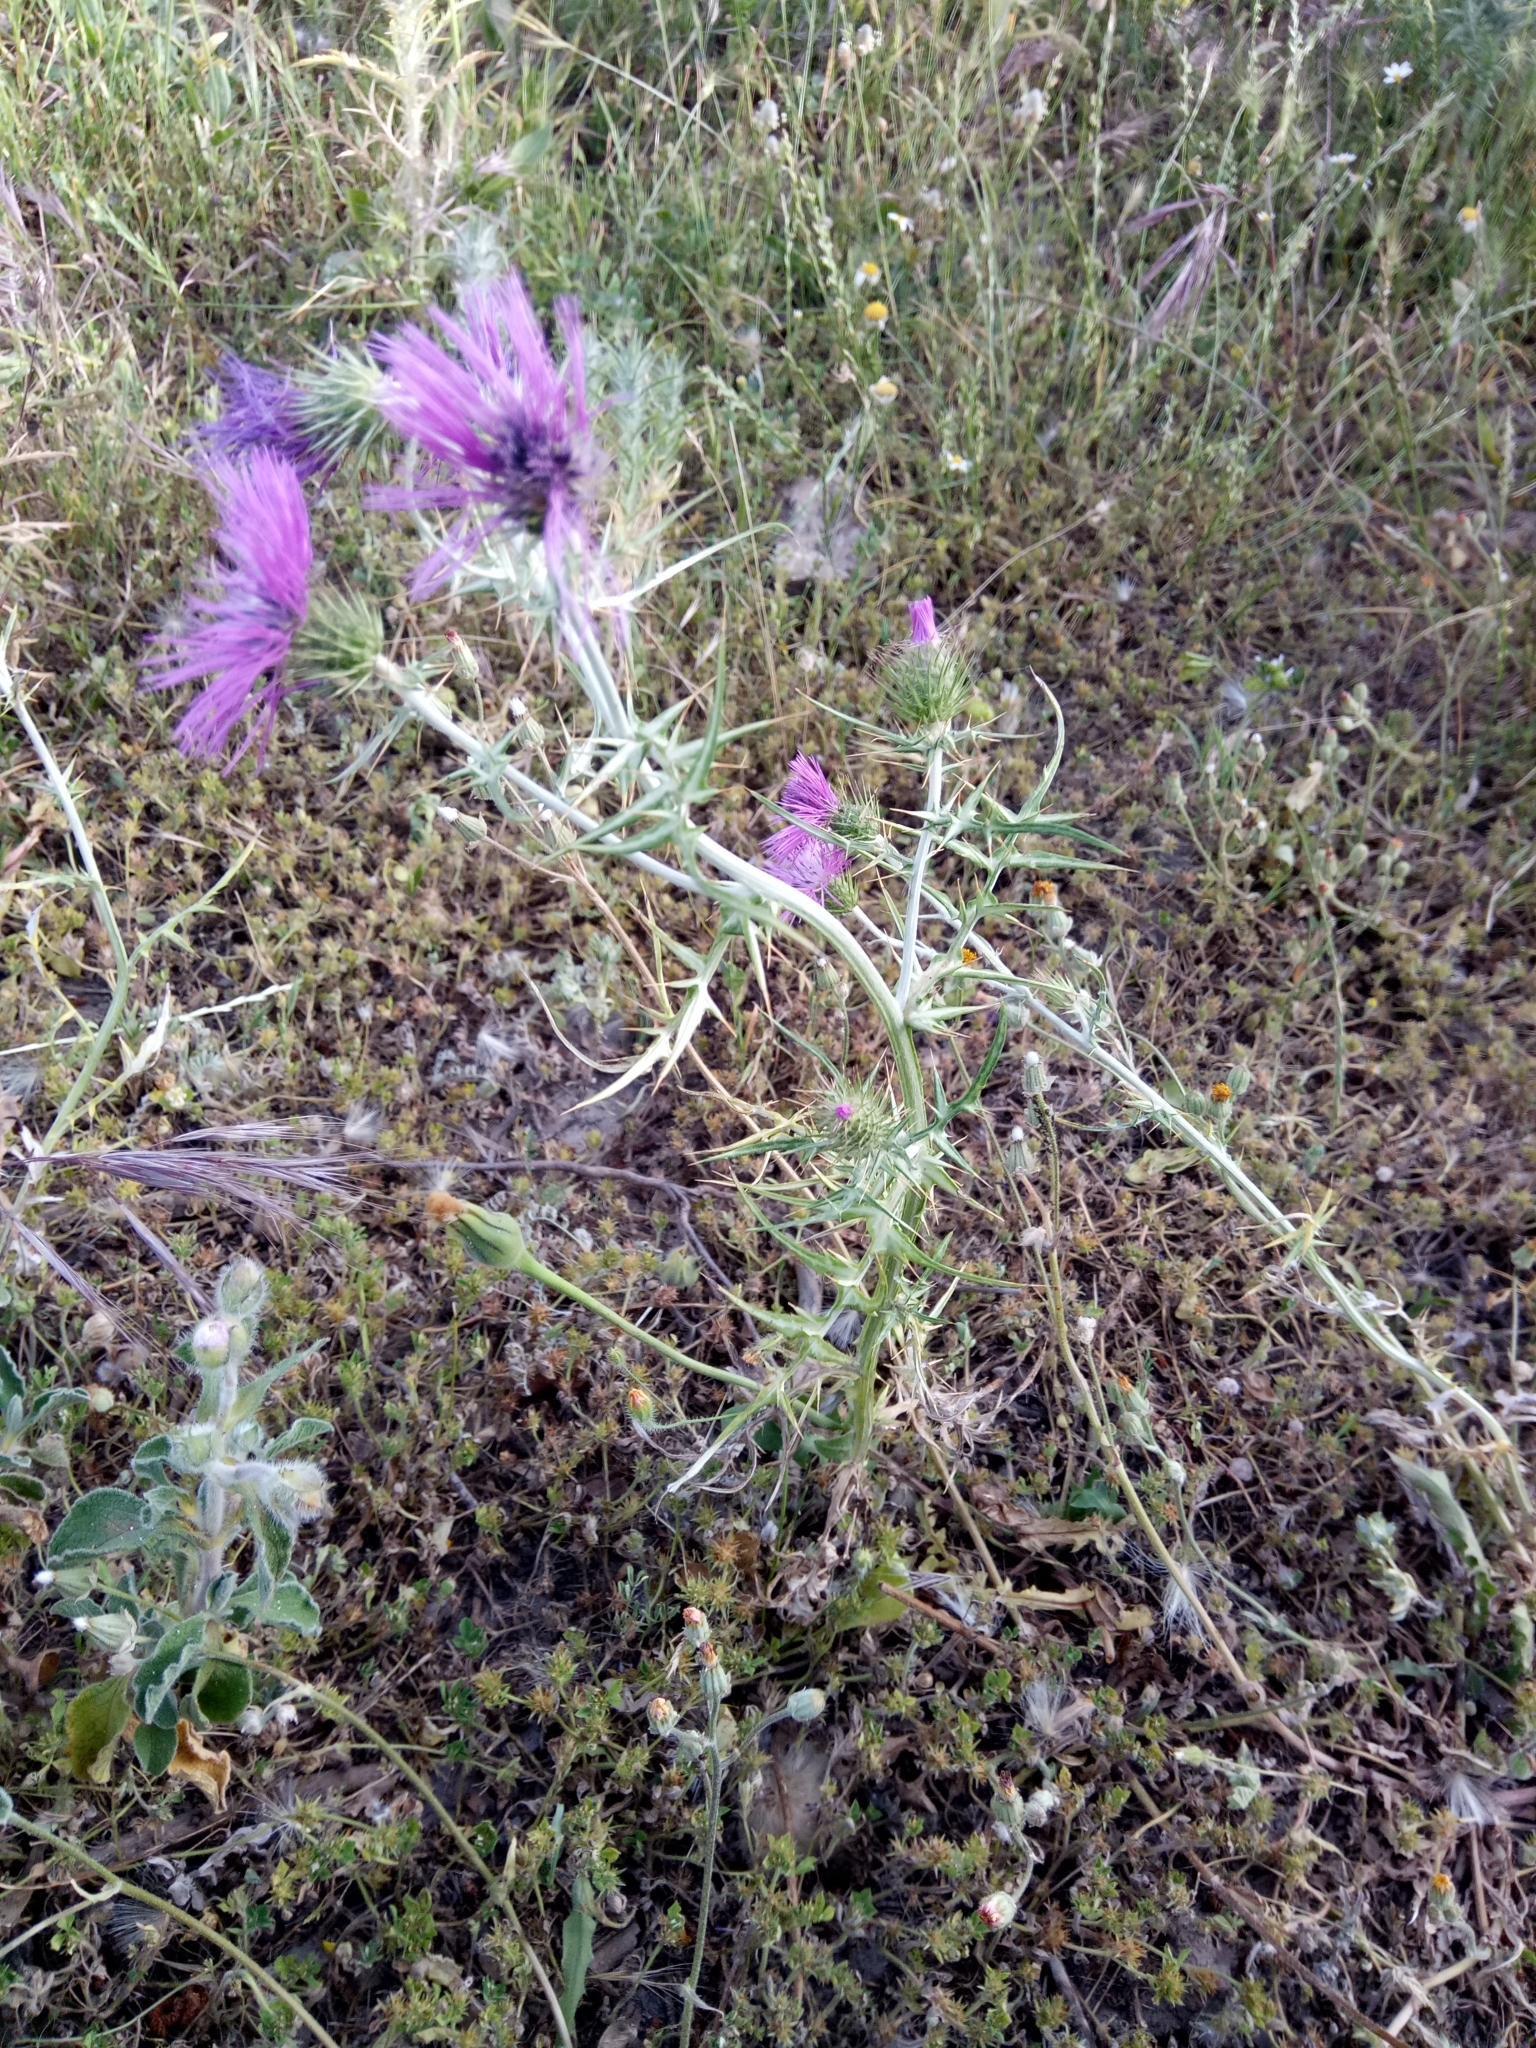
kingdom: Plantae
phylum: Tracheophyta
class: Magnoliopsida
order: Asterales
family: Asteraceae
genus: Galactites
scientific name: Galactites tomentosa
